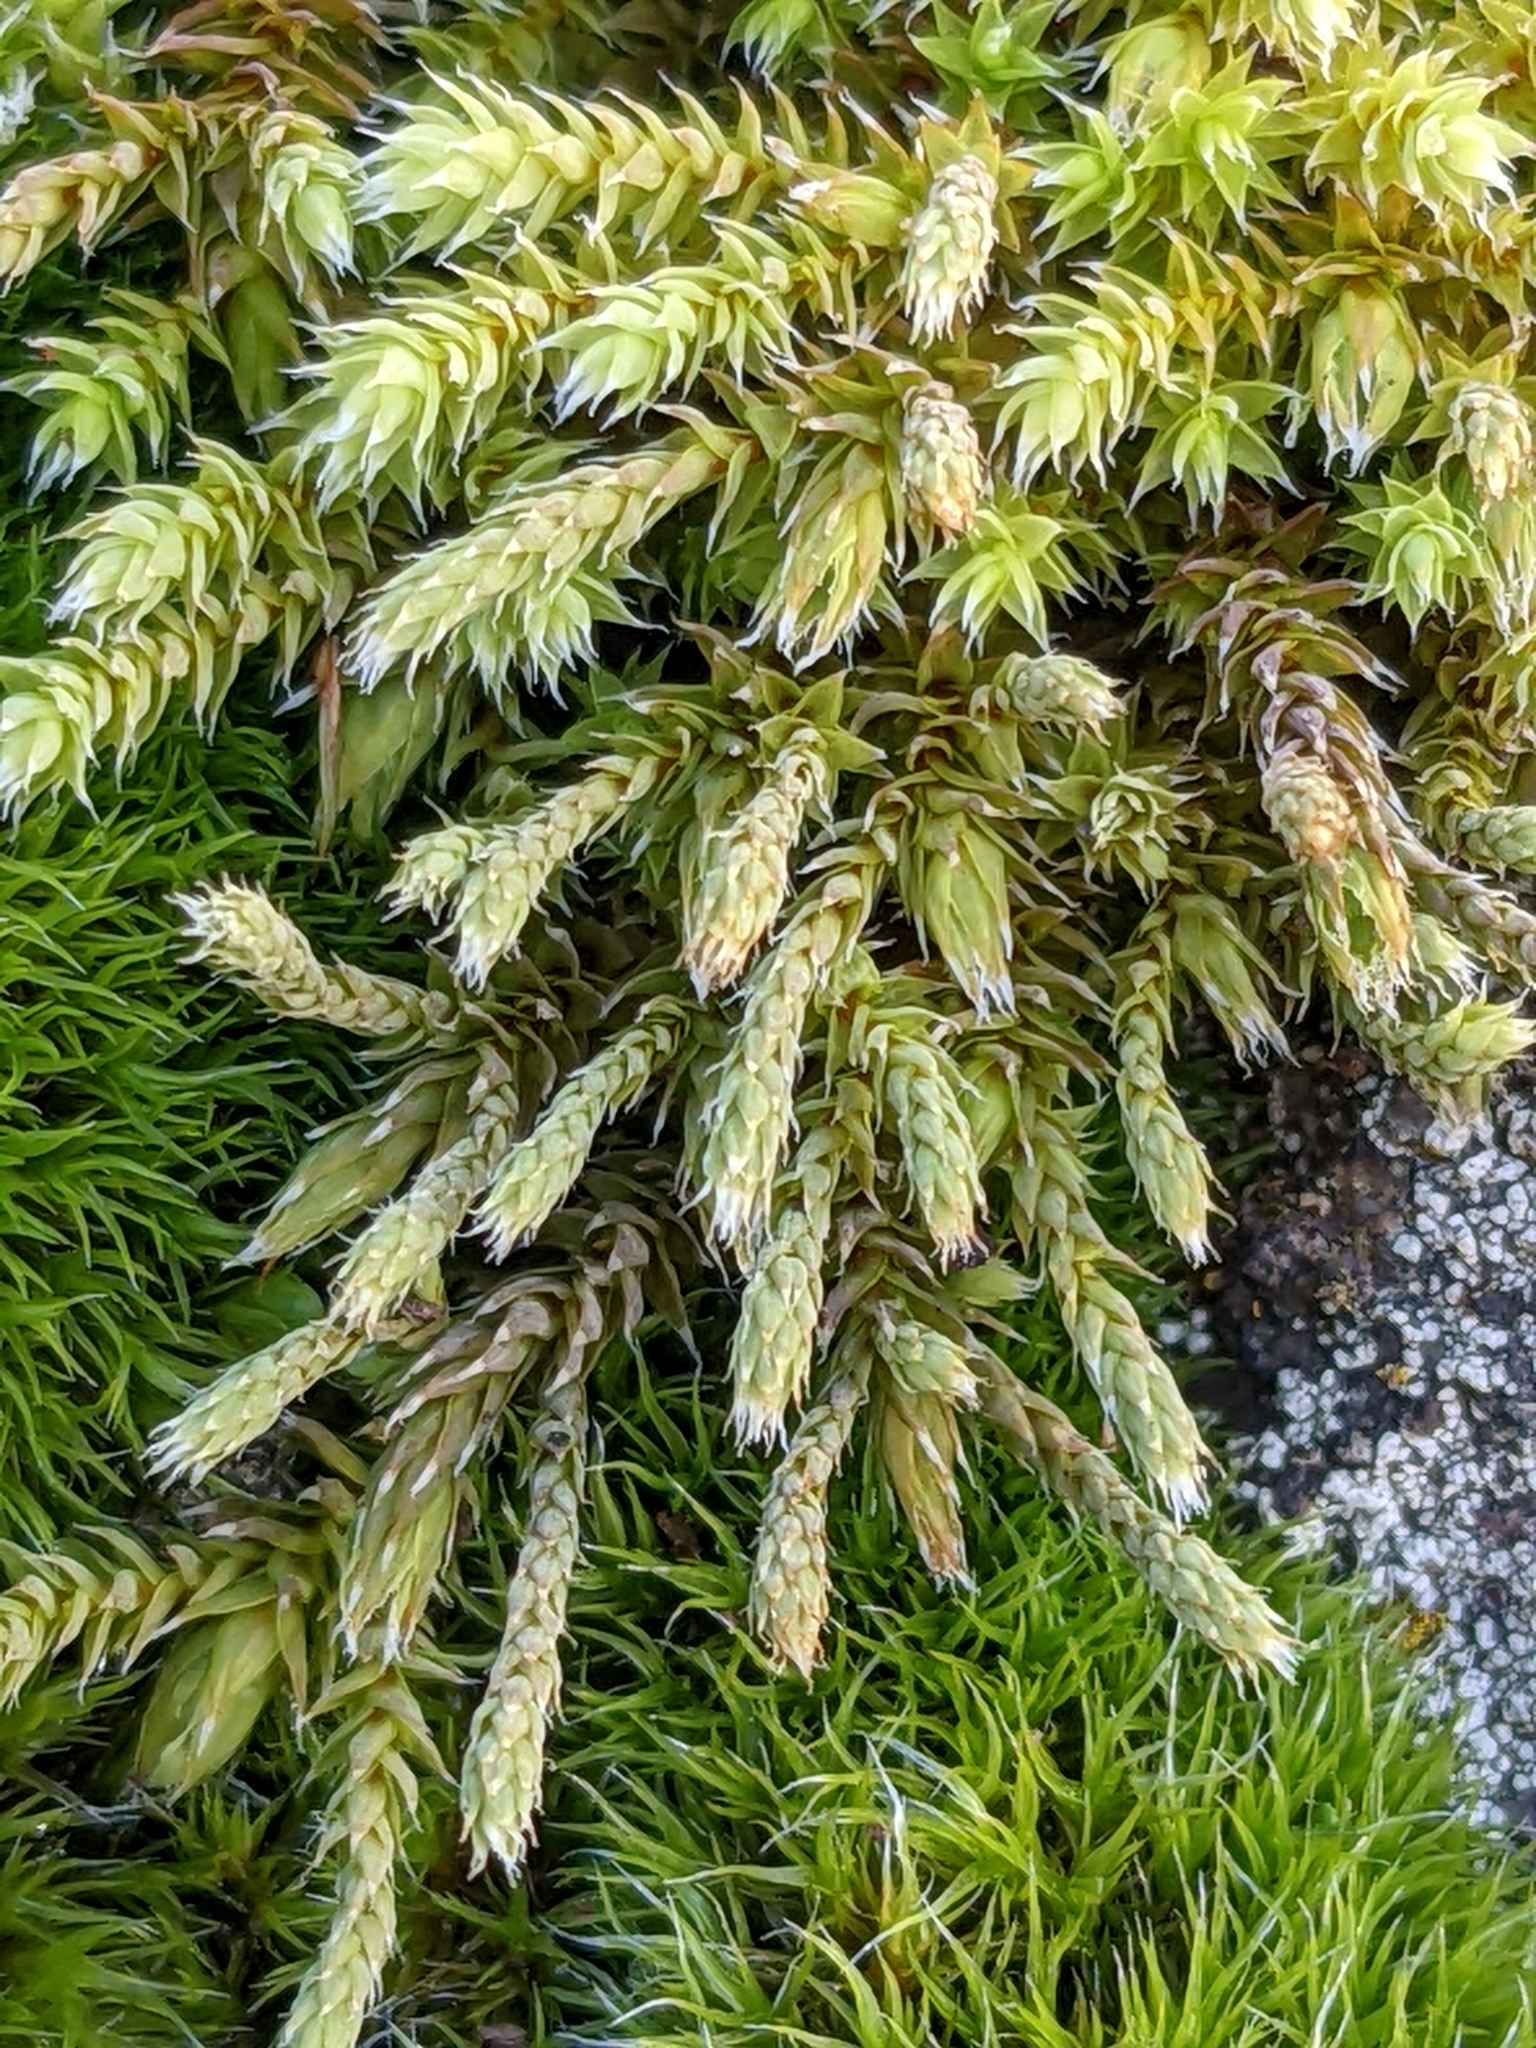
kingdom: Plantae
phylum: Bryophyta
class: Bryopsida
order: Hedwigiales
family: Hedwigiaceae
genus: Hedwigia
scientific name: Hedwigia ciliata
